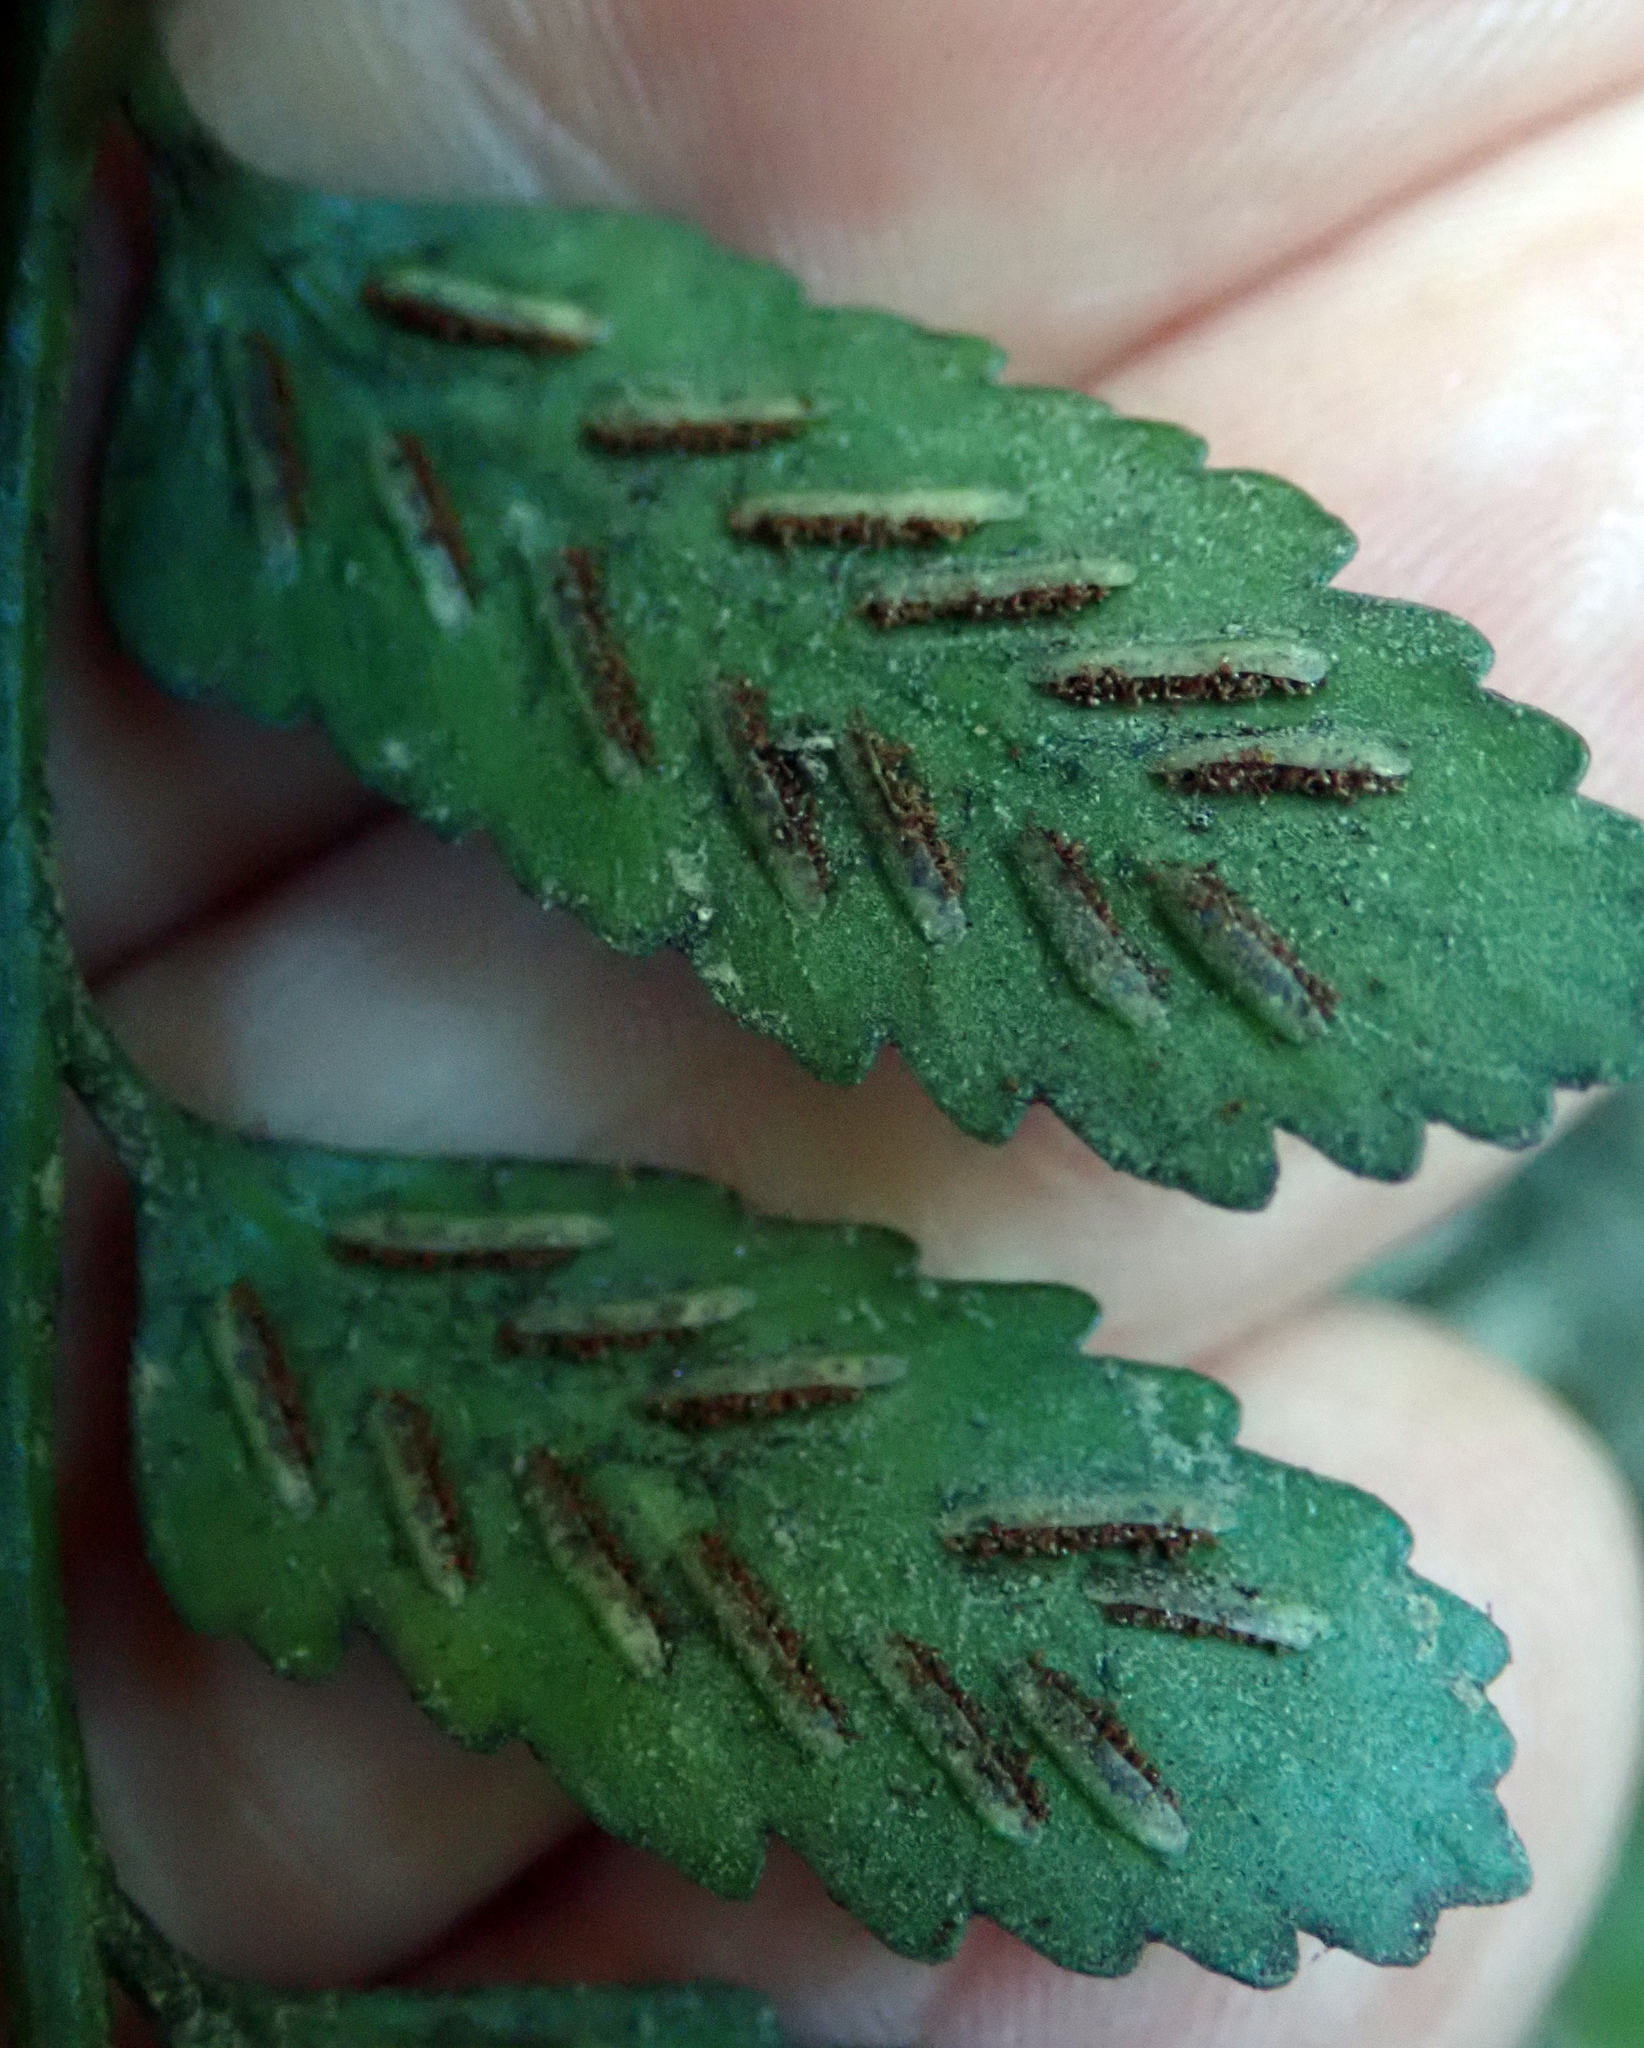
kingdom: Plantae
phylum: Tracheophyta
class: Polypodiopsida
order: Polypodiales
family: Aspleniaceae
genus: Asplenium
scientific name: Asplenium lyallii
